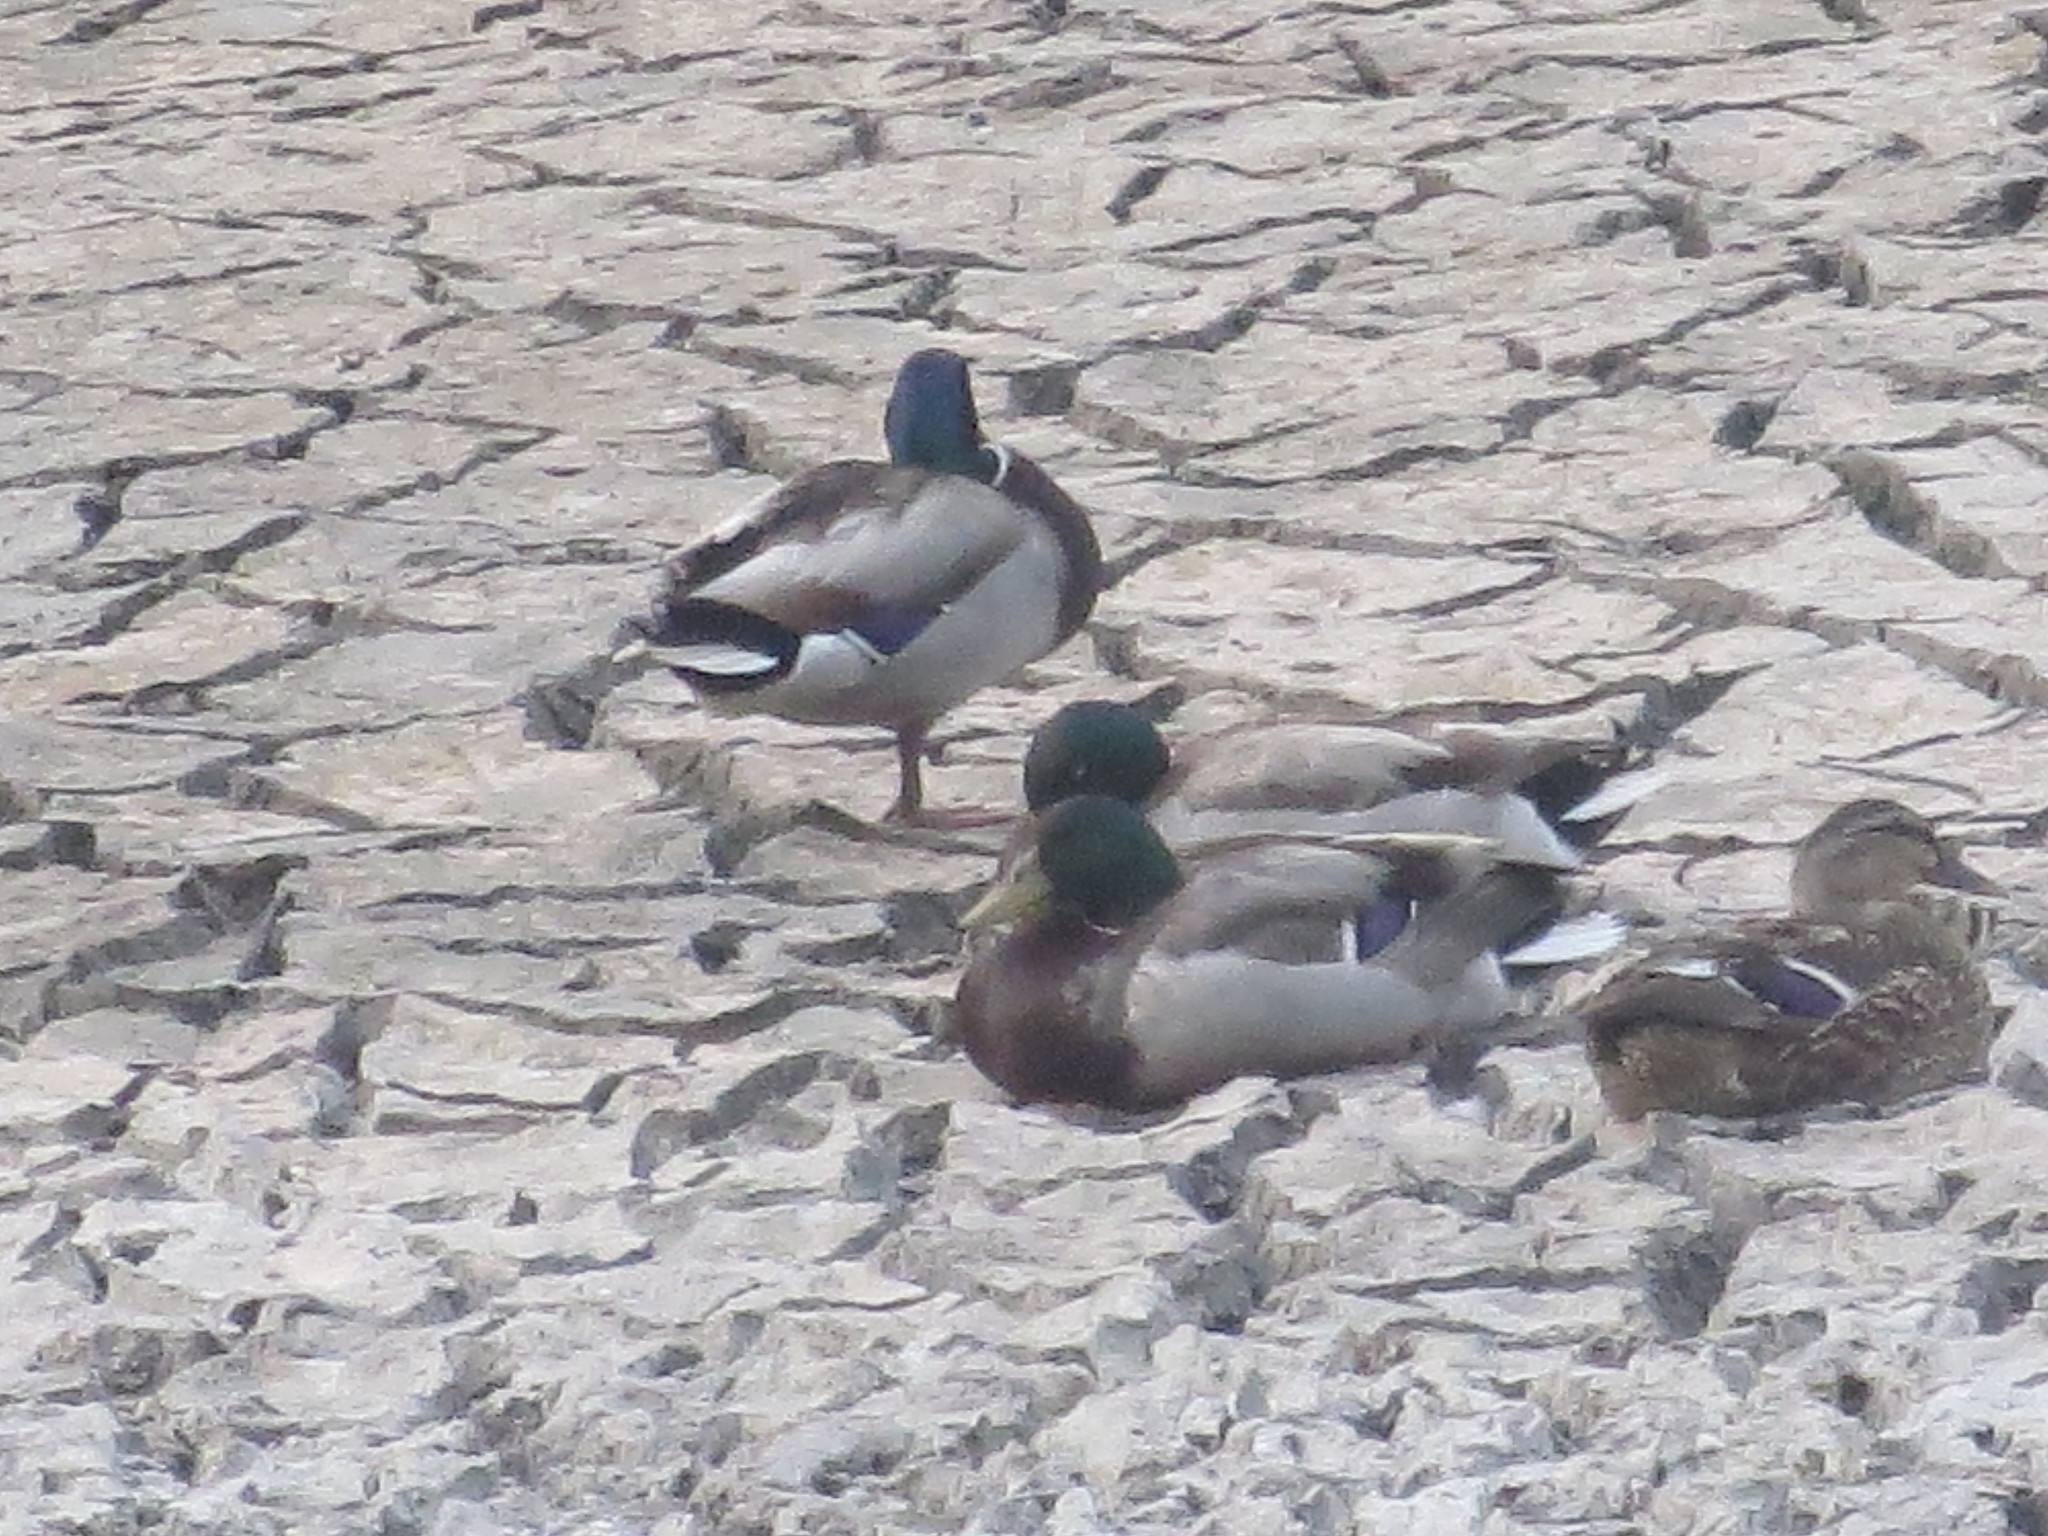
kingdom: Animalia
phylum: Chordata
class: Aves
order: Anseriformes
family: Anatidae
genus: Anas
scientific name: Anas platyrhynchos
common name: Mallard
